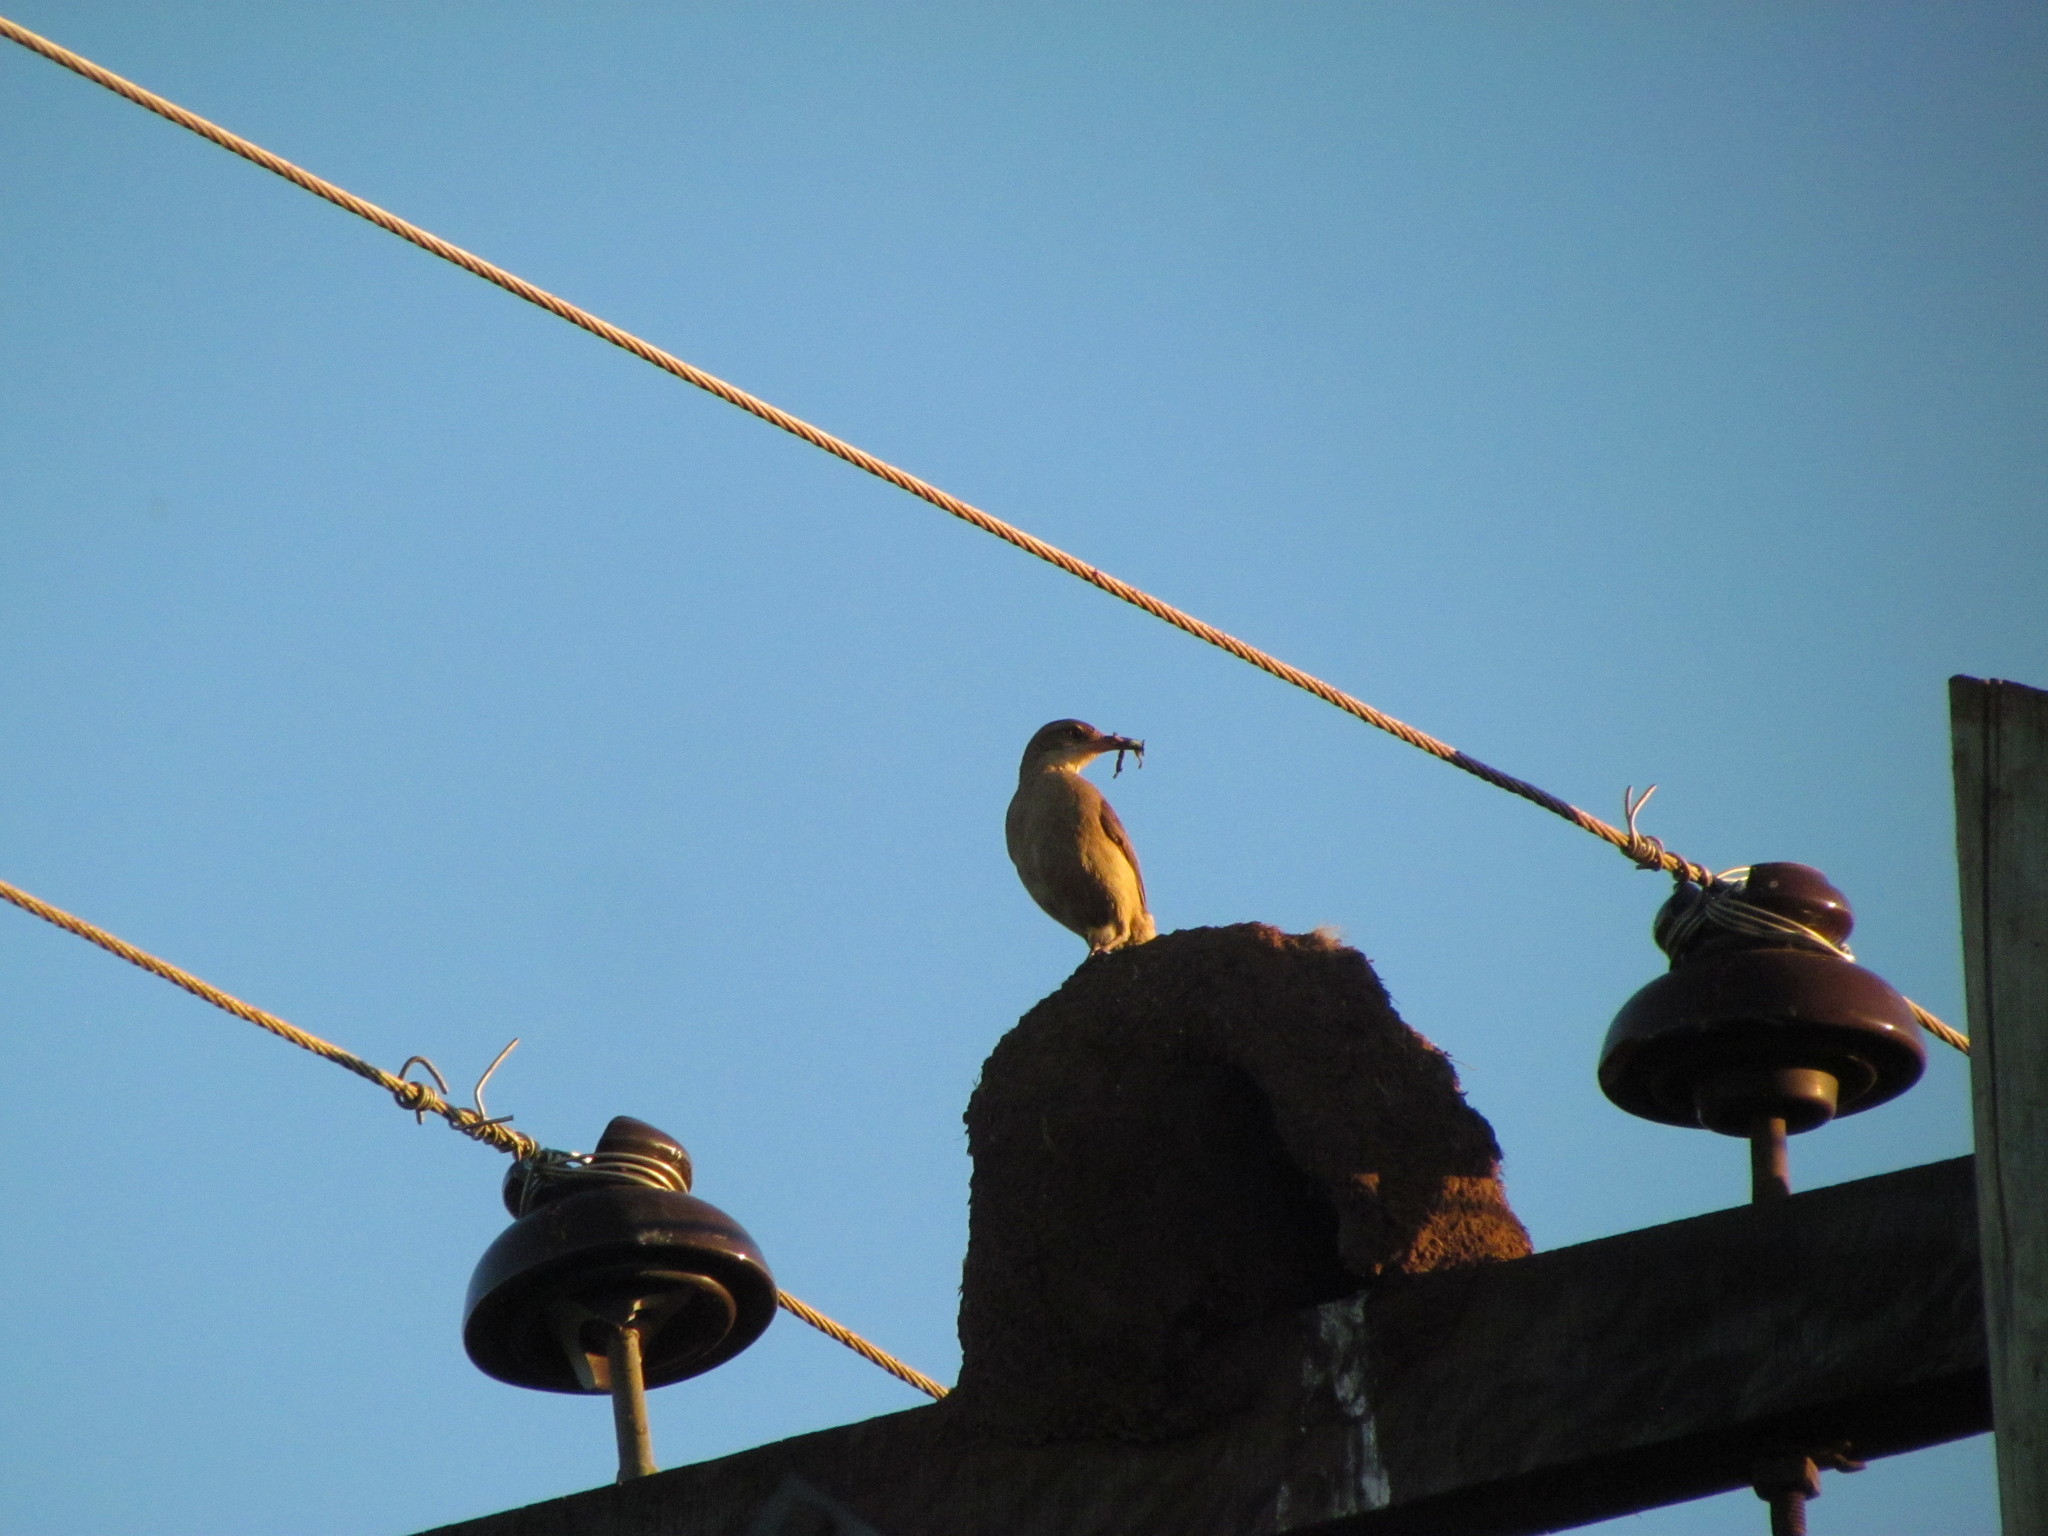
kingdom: Animalia
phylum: Chordata
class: Aves
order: Passeriformes
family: Furnariidae
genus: Furnarius
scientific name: Furnarius rufus
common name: Rufous hornero
